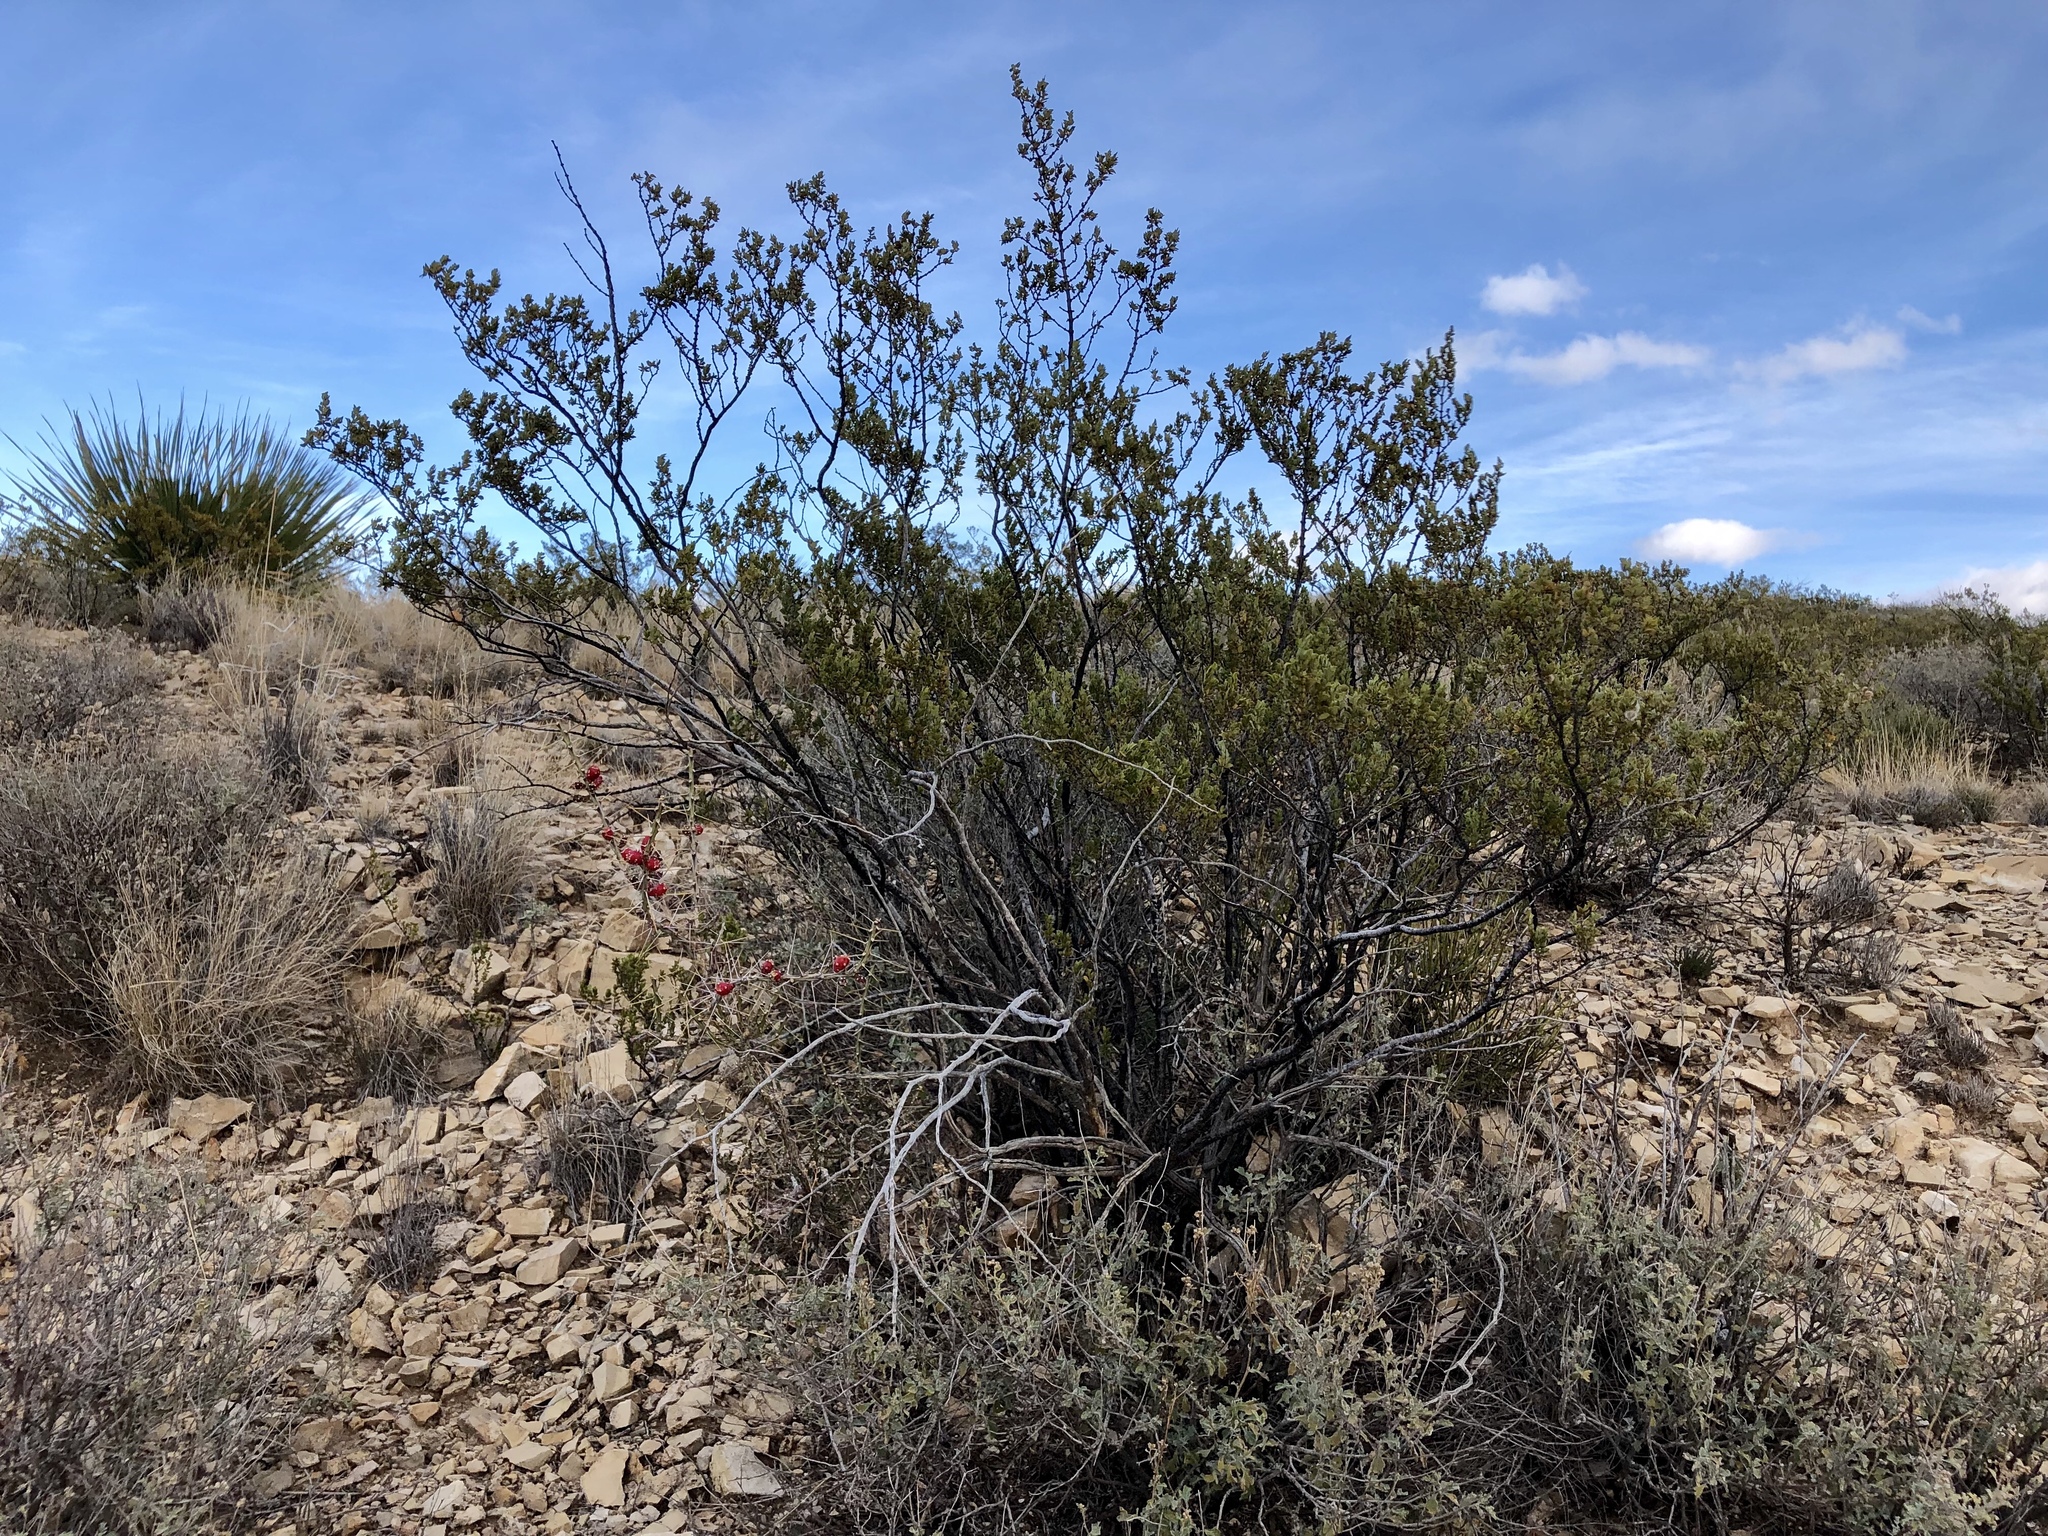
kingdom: Plantae
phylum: Tracheophyta
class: Magnoliopsida
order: Zygophyllales
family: Zygophyllaceae
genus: Larrea
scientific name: Larrea tridentata
